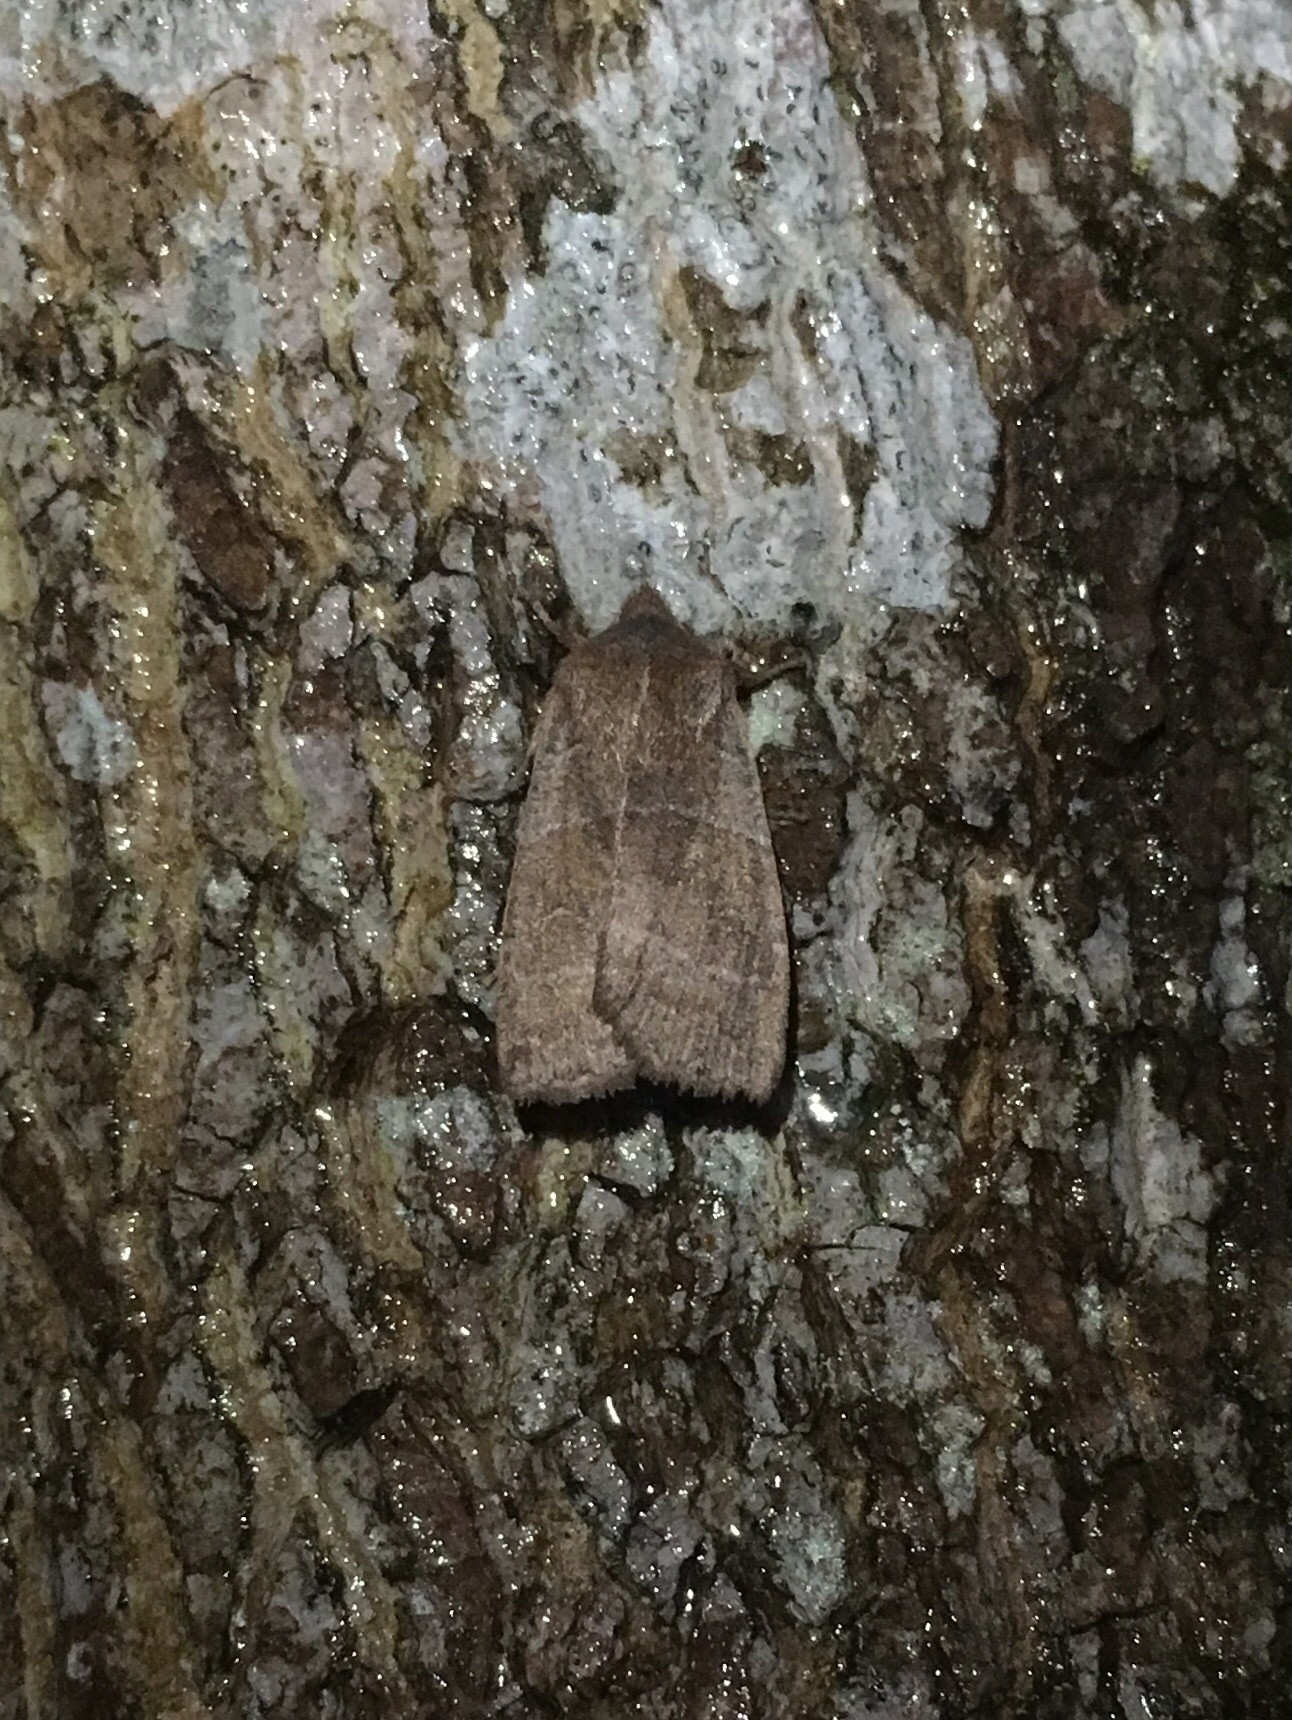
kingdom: Animalia
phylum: Arthropoda
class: Insecta
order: Lepidoptera
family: Noctuidae
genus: Eupsilia
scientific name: Eupsilia morrisoni
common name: Morrison's sallow
